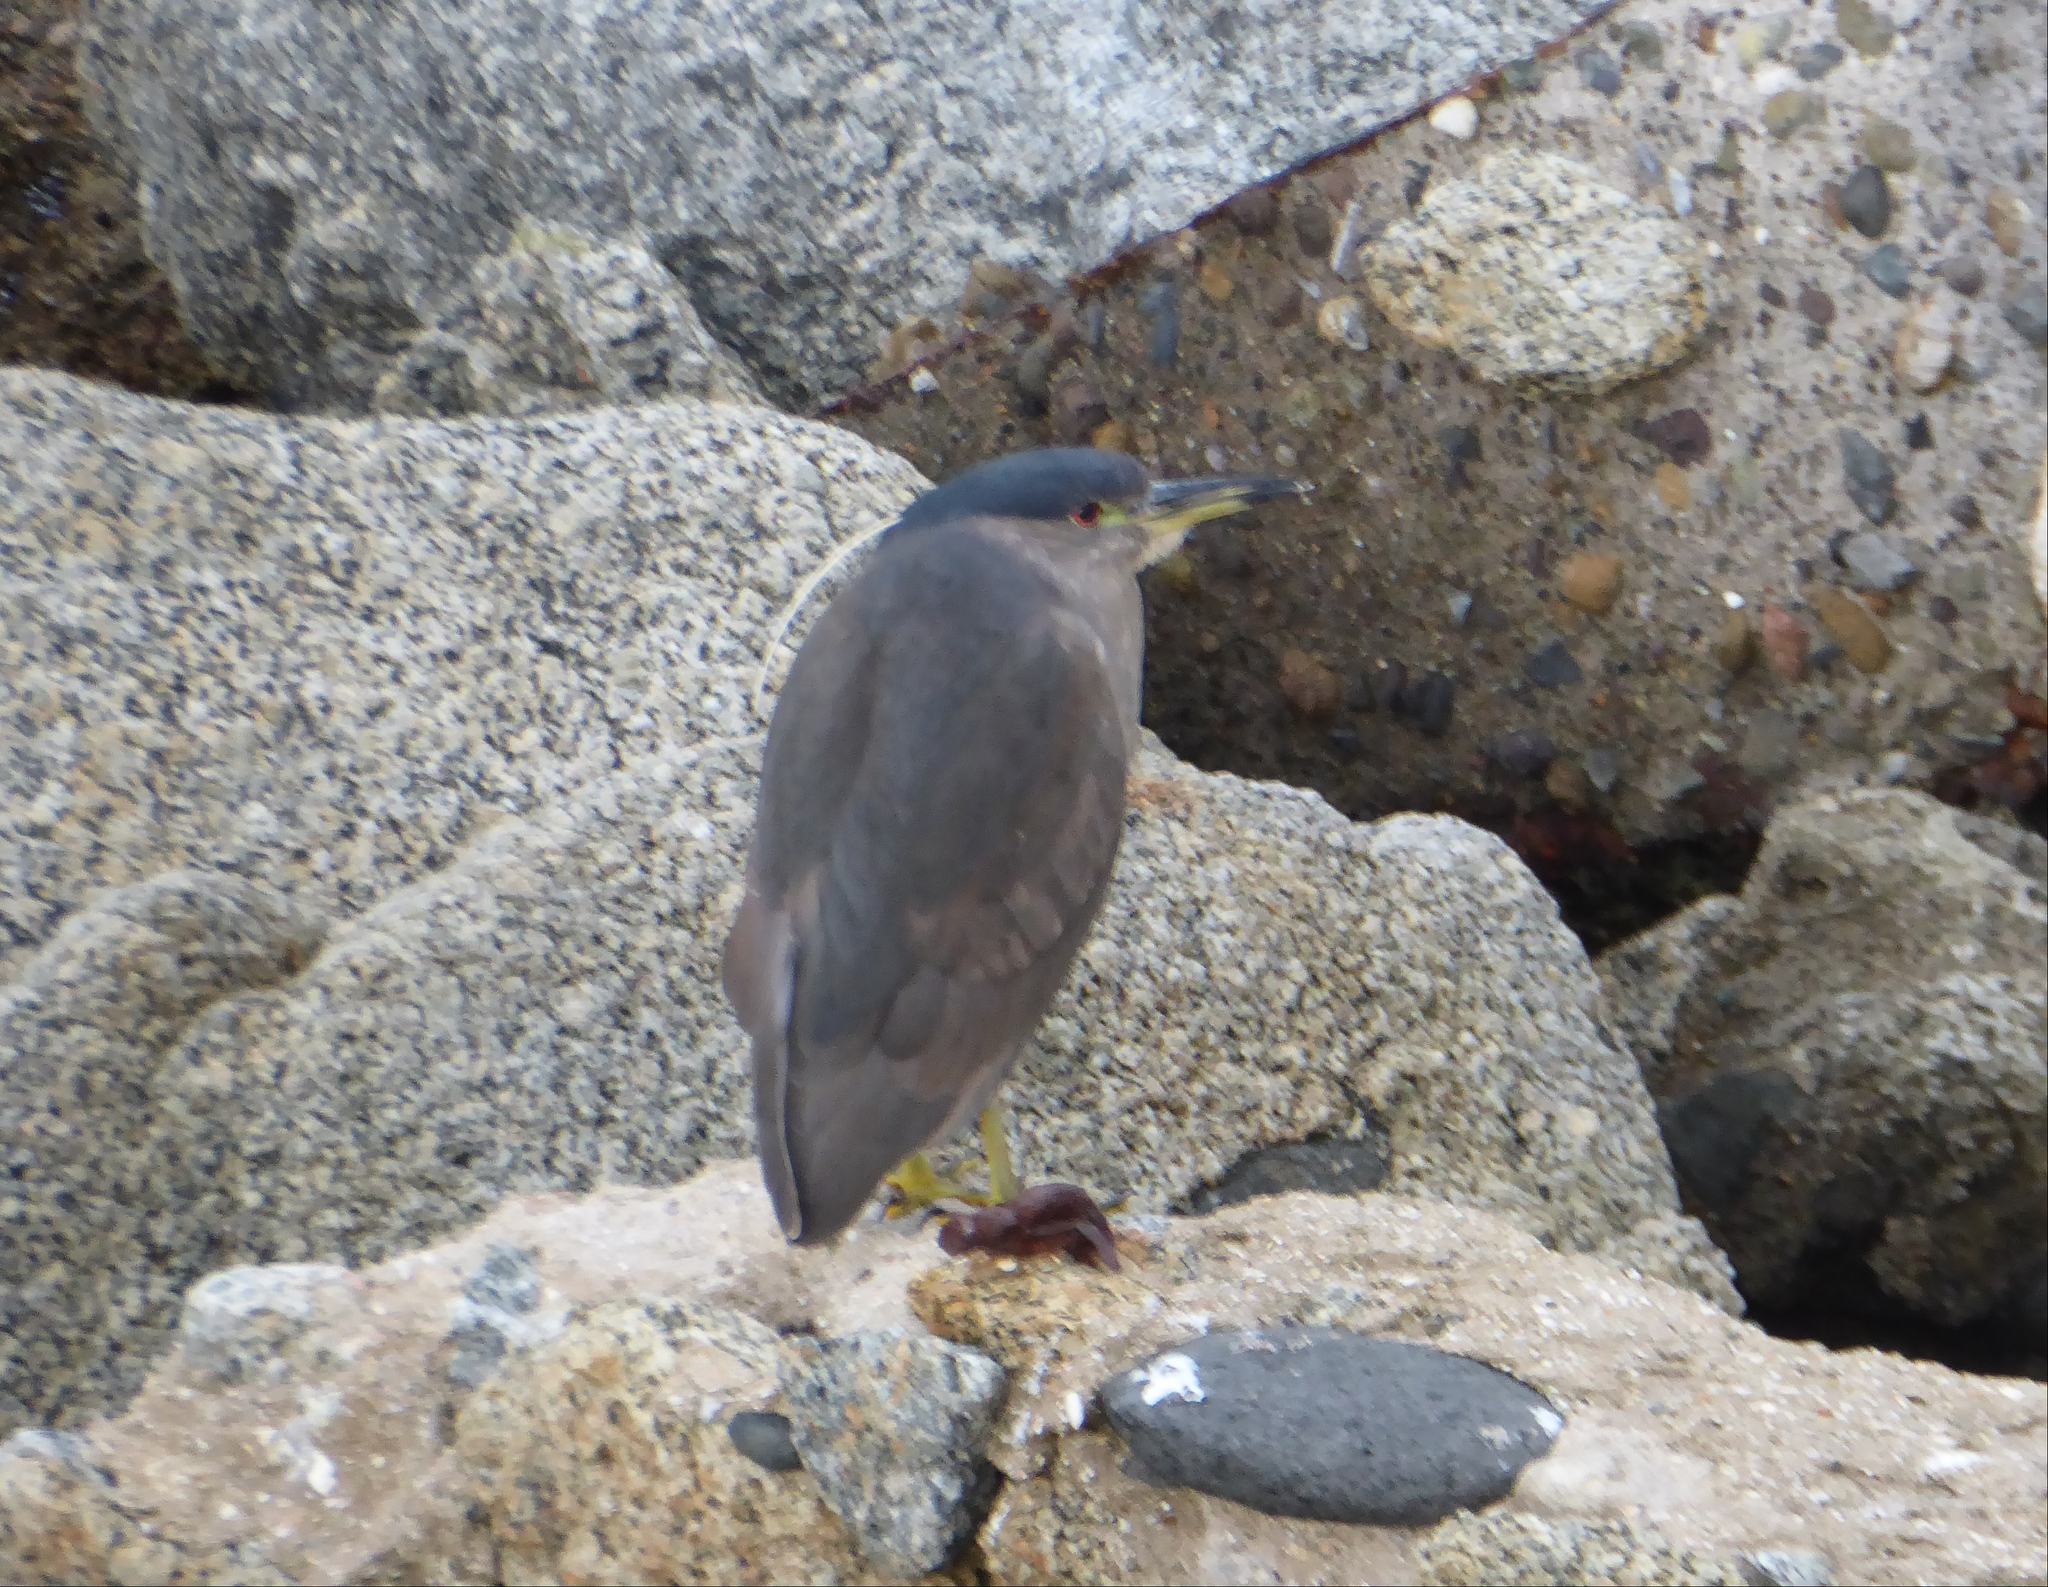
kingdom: Animalia
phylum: Chordata
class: Aves
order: Pelecaniformes
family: Ardeidae
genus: Nycticorax
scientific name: Nycticorax nycticorax
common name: Black-crowned night heron
